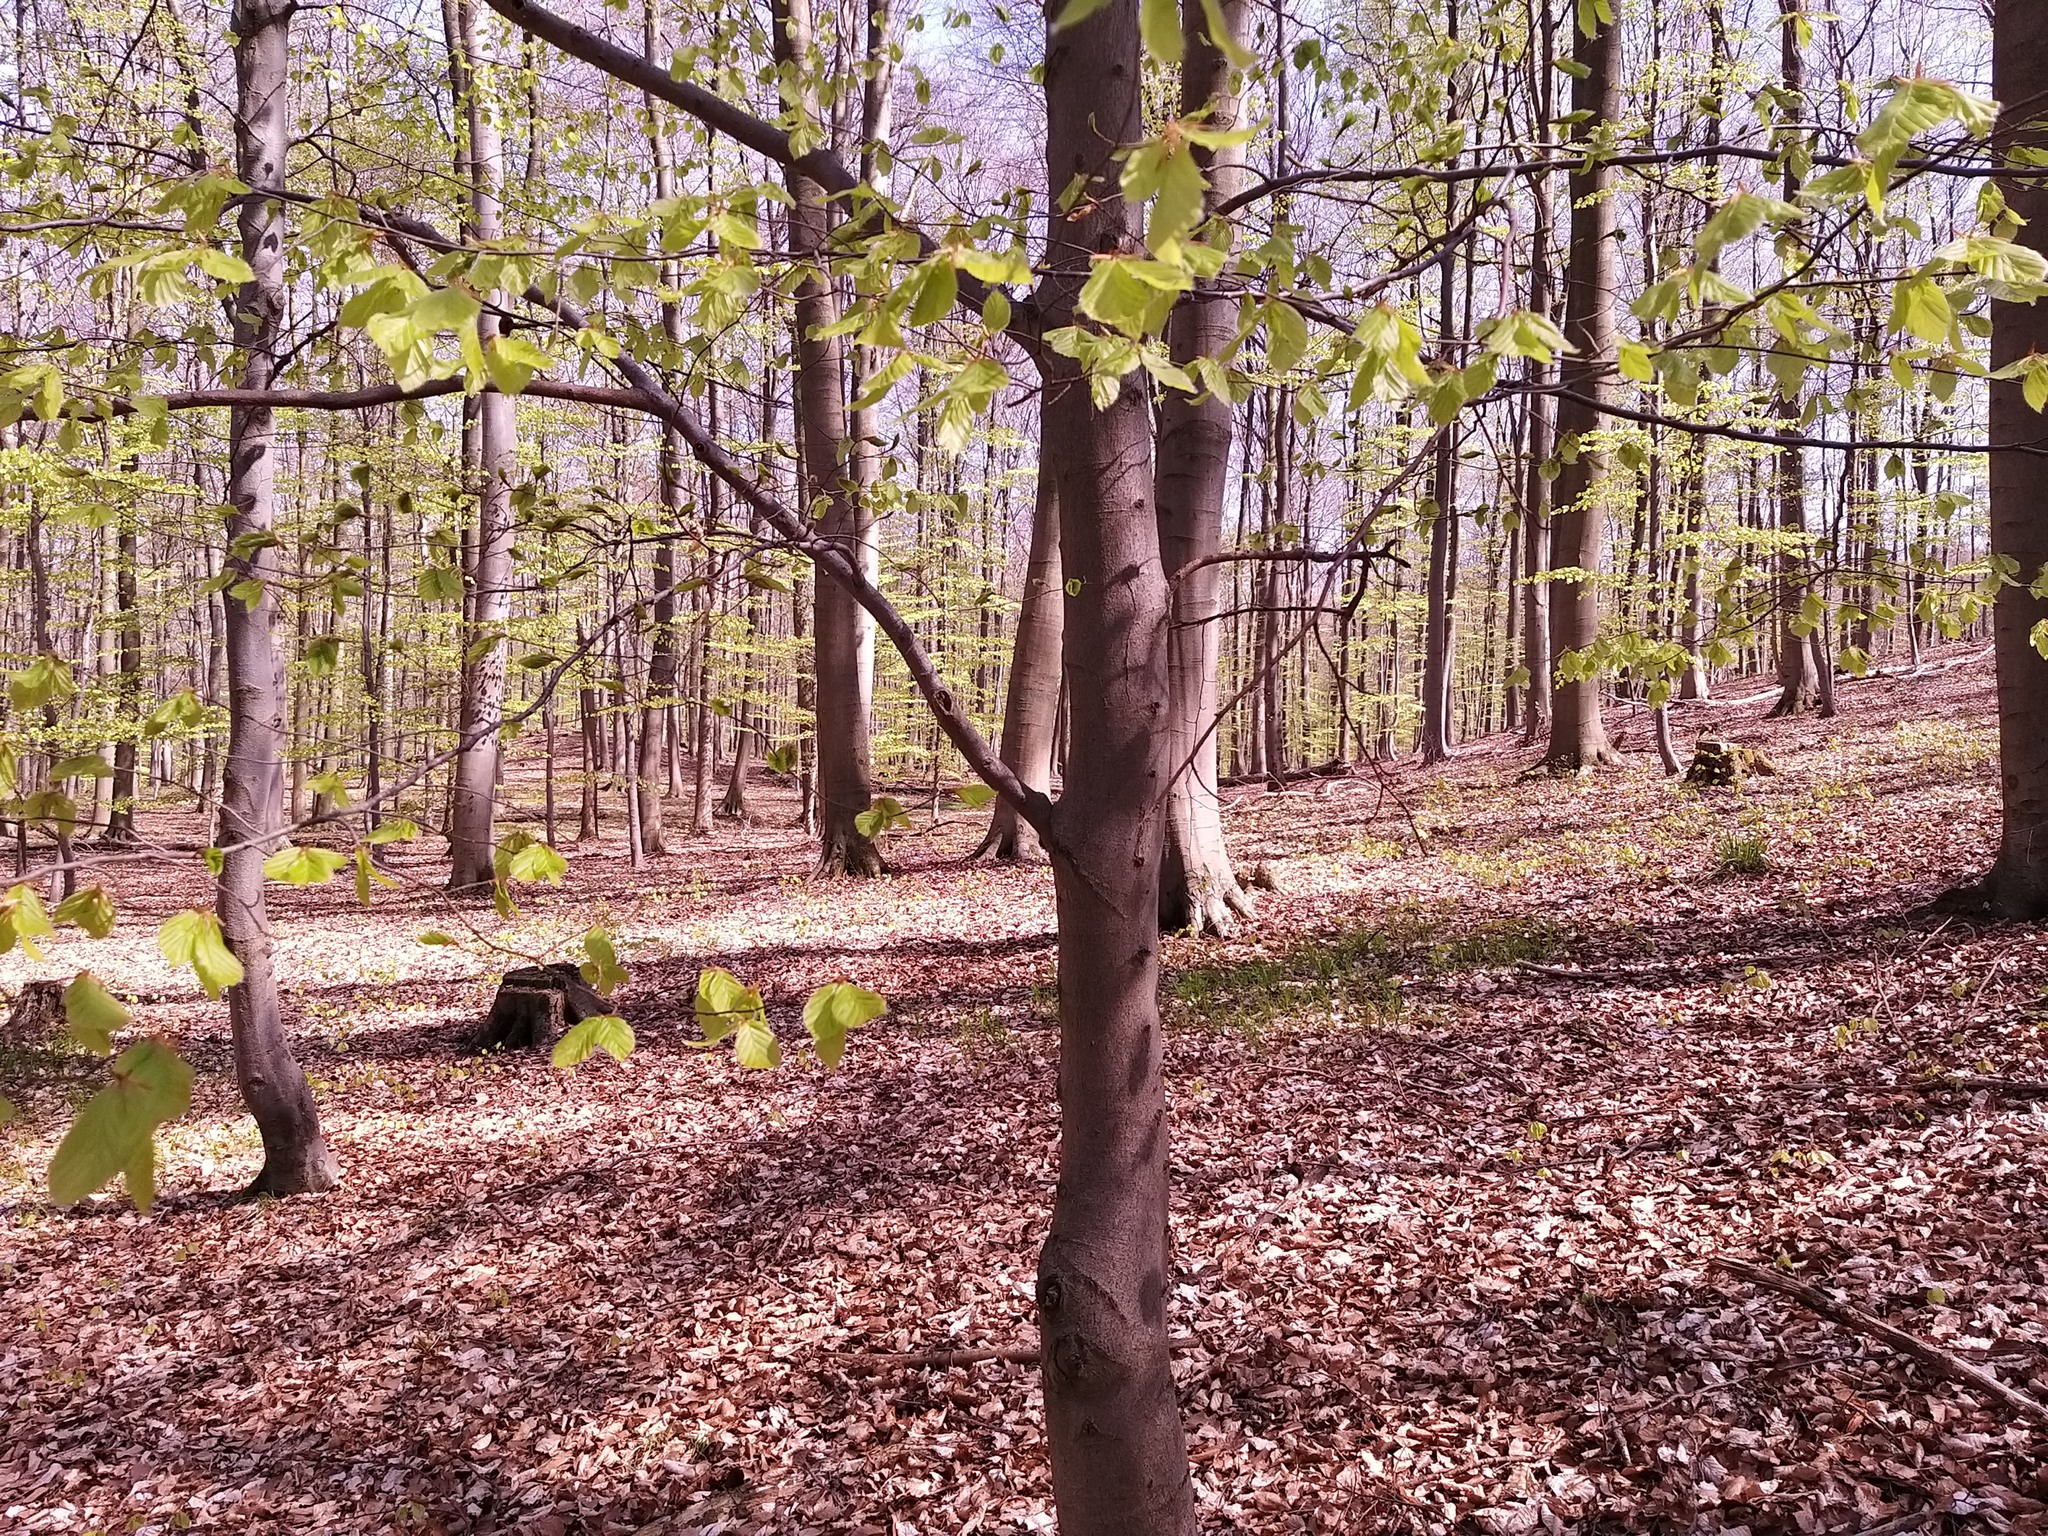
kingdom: Plantae
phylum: Tracheophyta
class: Magnoliopsida
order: Fagales
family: Fagaceae
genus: Fagus
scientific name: Fagus sylvatica
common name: Beech
